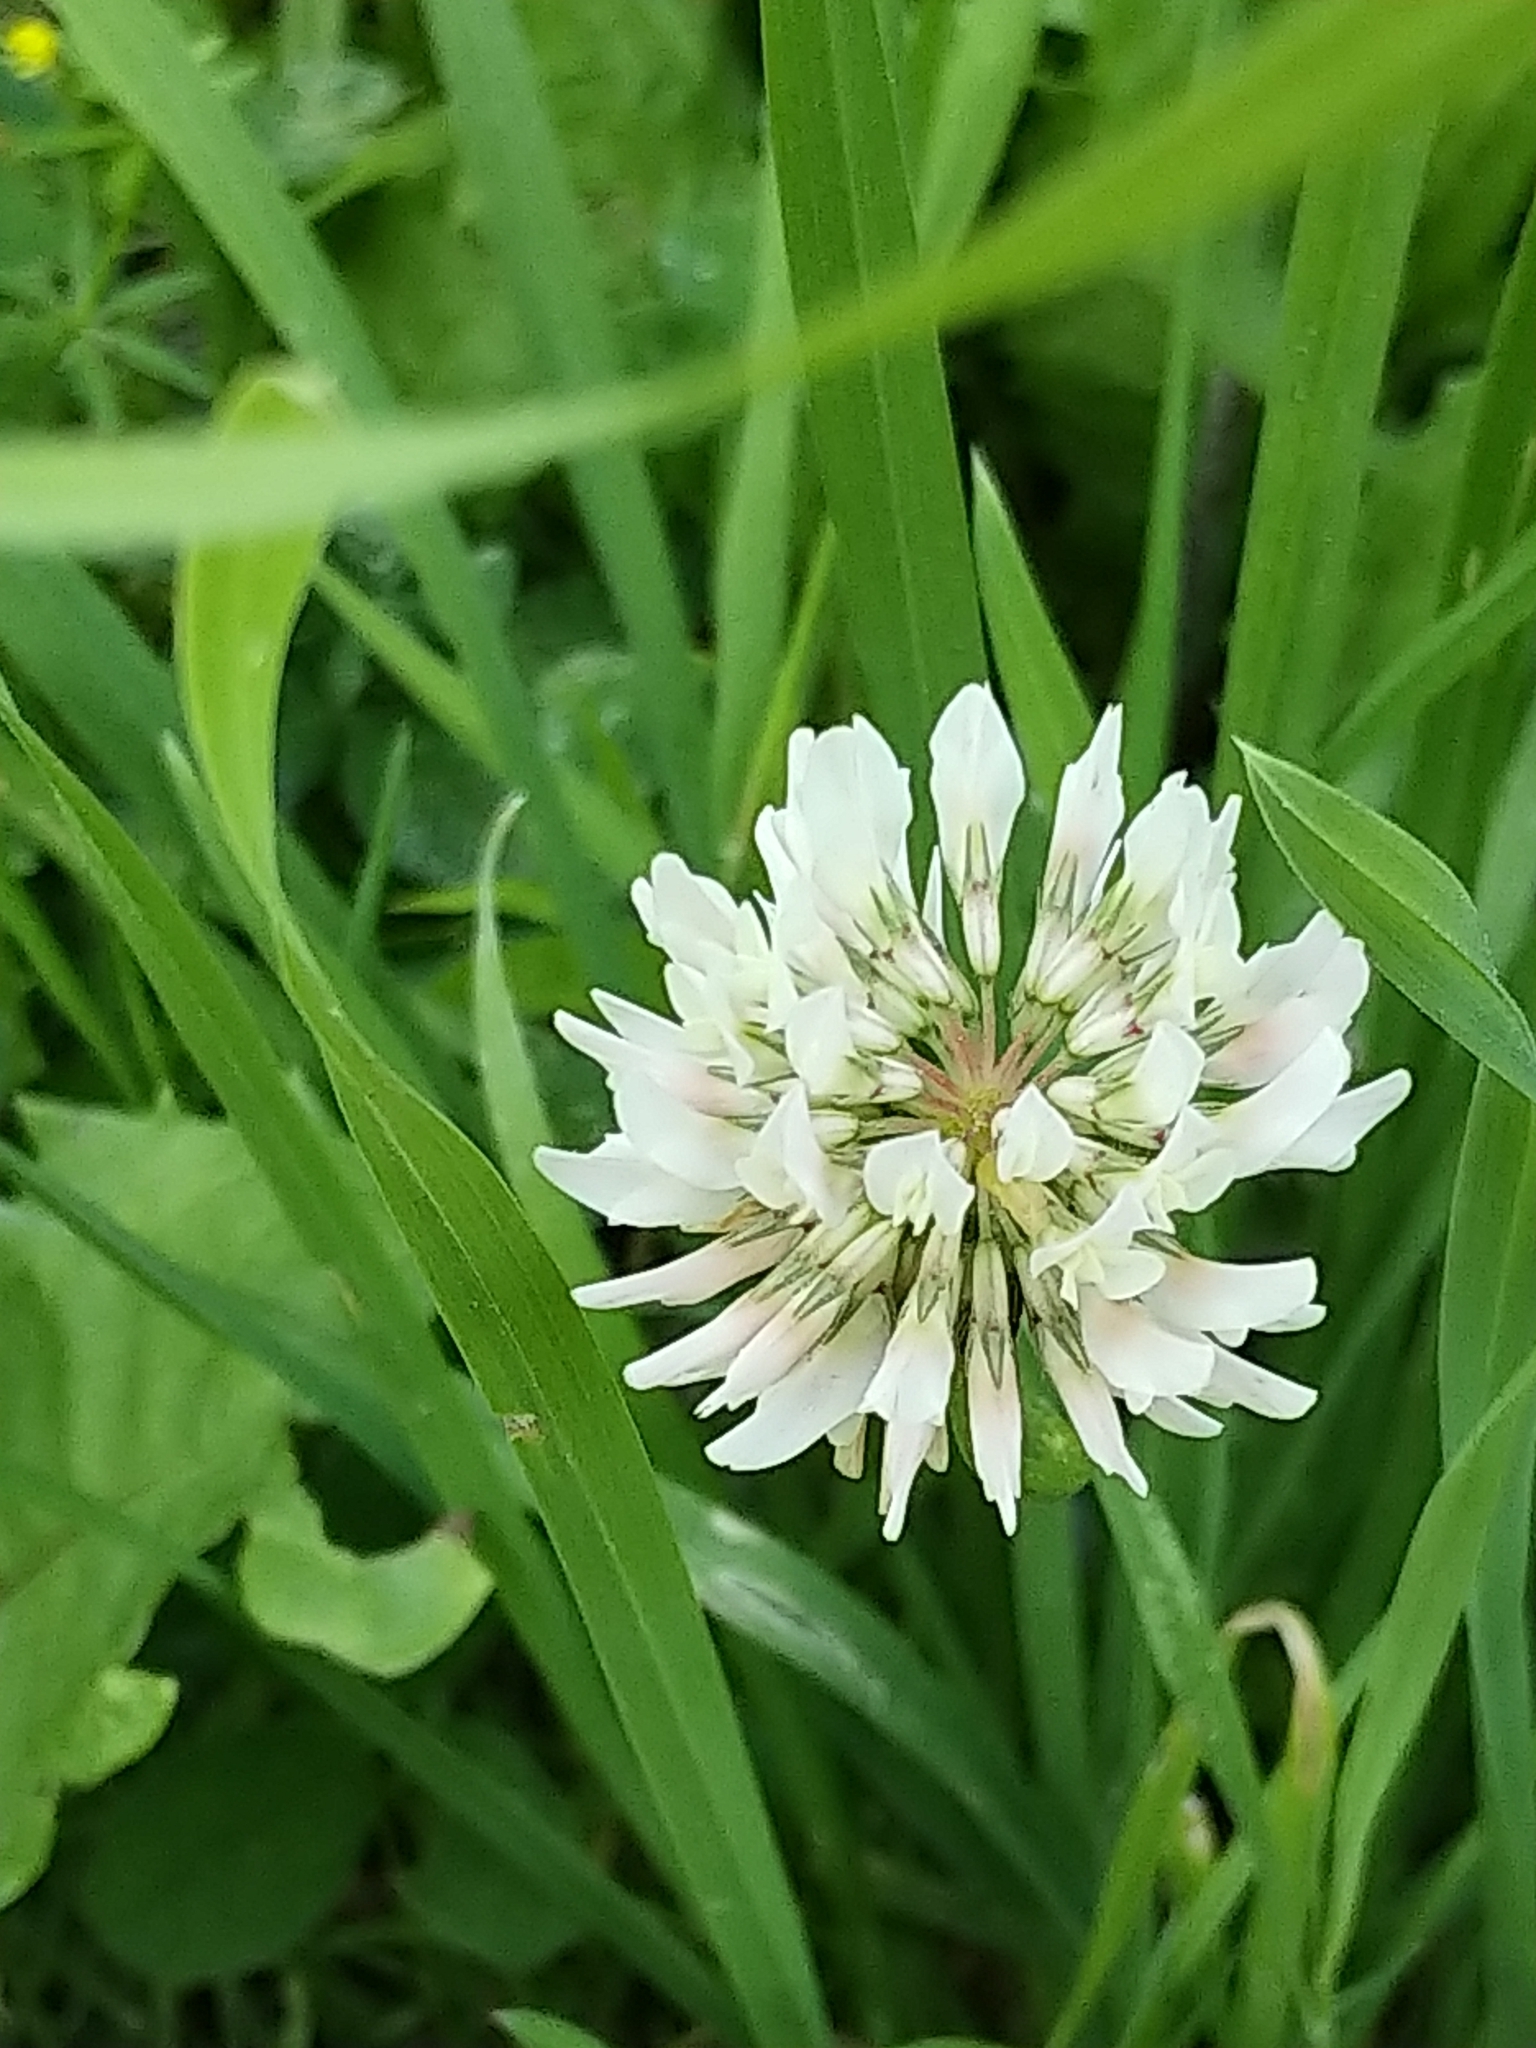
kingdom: Plantae
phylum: Tracheophyta
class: Magnoliopsida
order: Fabales
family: Fabaceae
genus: Trifolium
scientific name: Trifolium repens
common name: White clover
